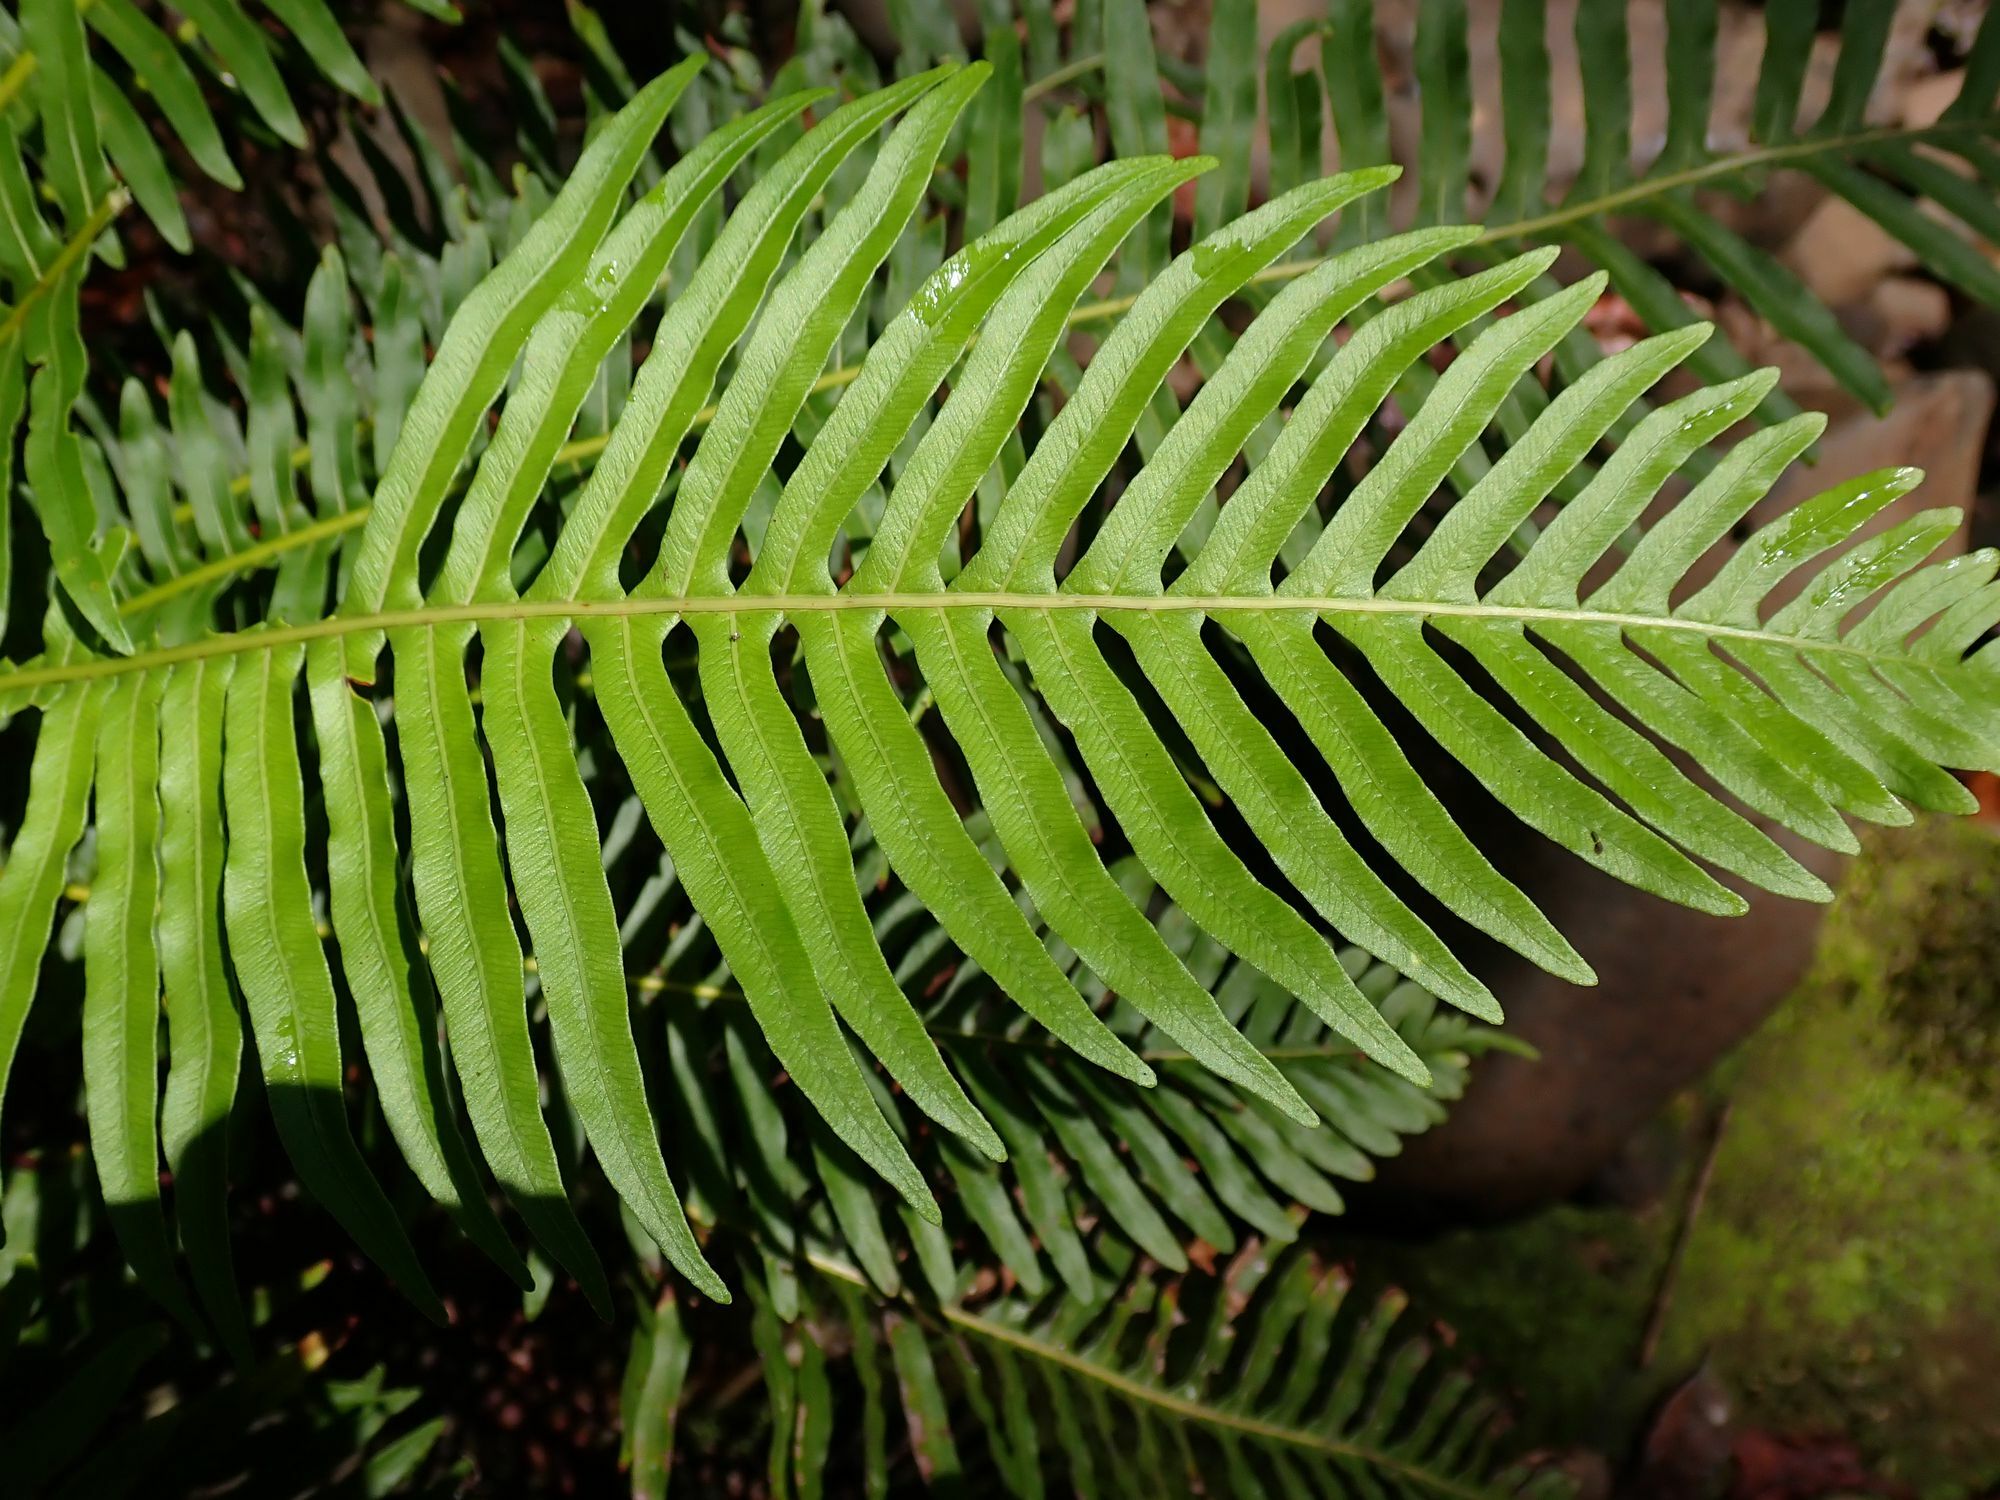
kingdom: Plantae
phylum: Tracheophyta
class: Polypodiopsida
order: Polypodiales
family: Blechnaceae
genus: Lomaria
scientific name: Lomaria nuda
